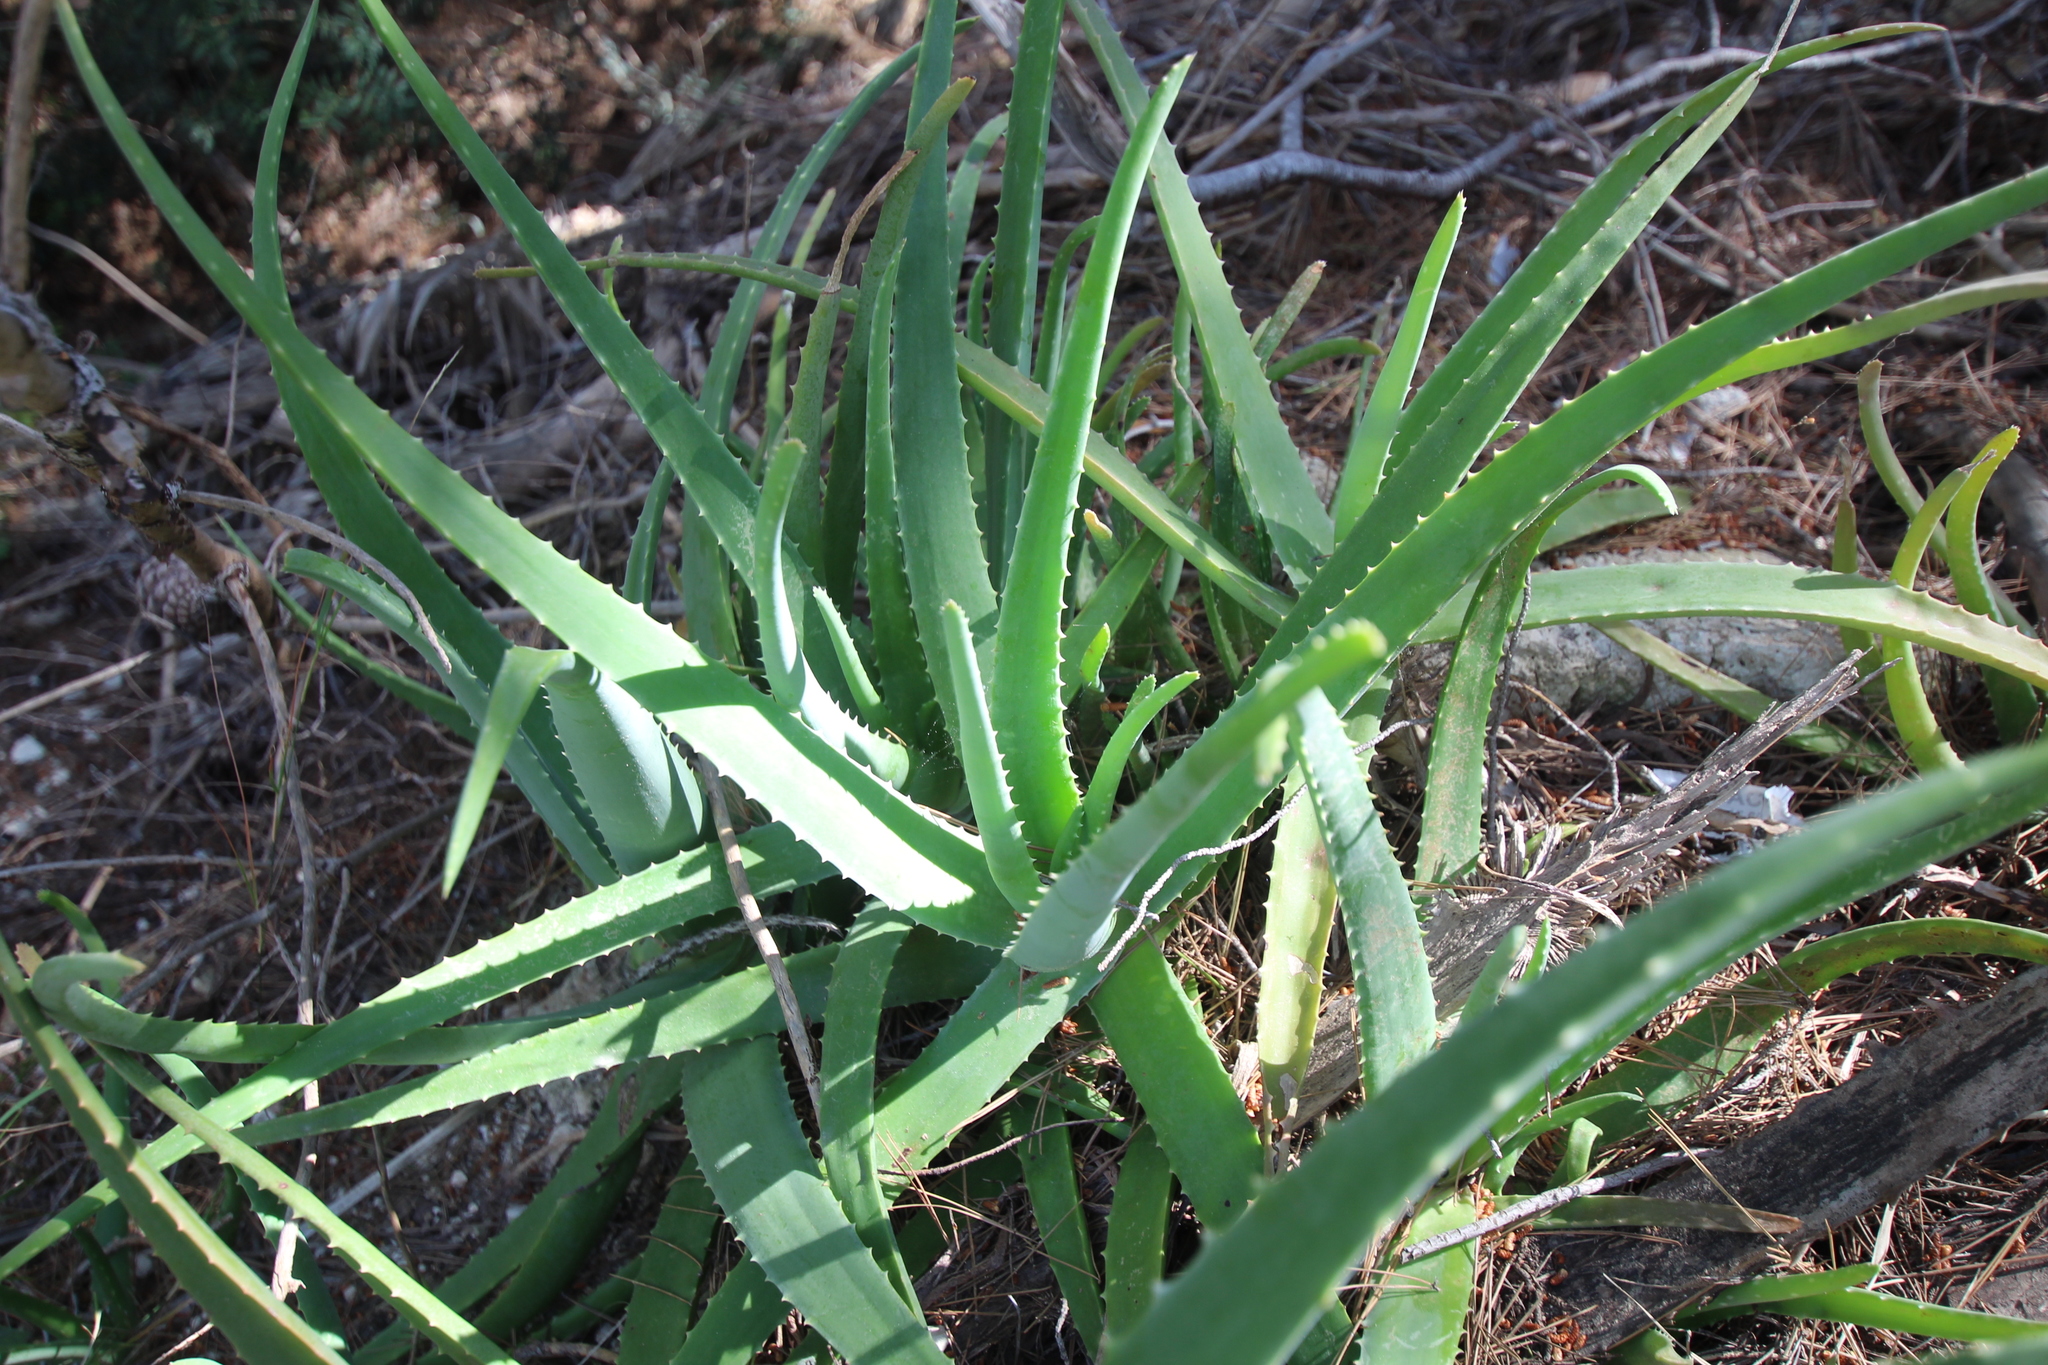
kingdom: Plantae
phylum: Tracheophyta
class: Liliopsida
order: Asparagales
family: Asphodelaceae
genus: Aloe
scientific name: Aloe vera
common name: Barbados aloe
